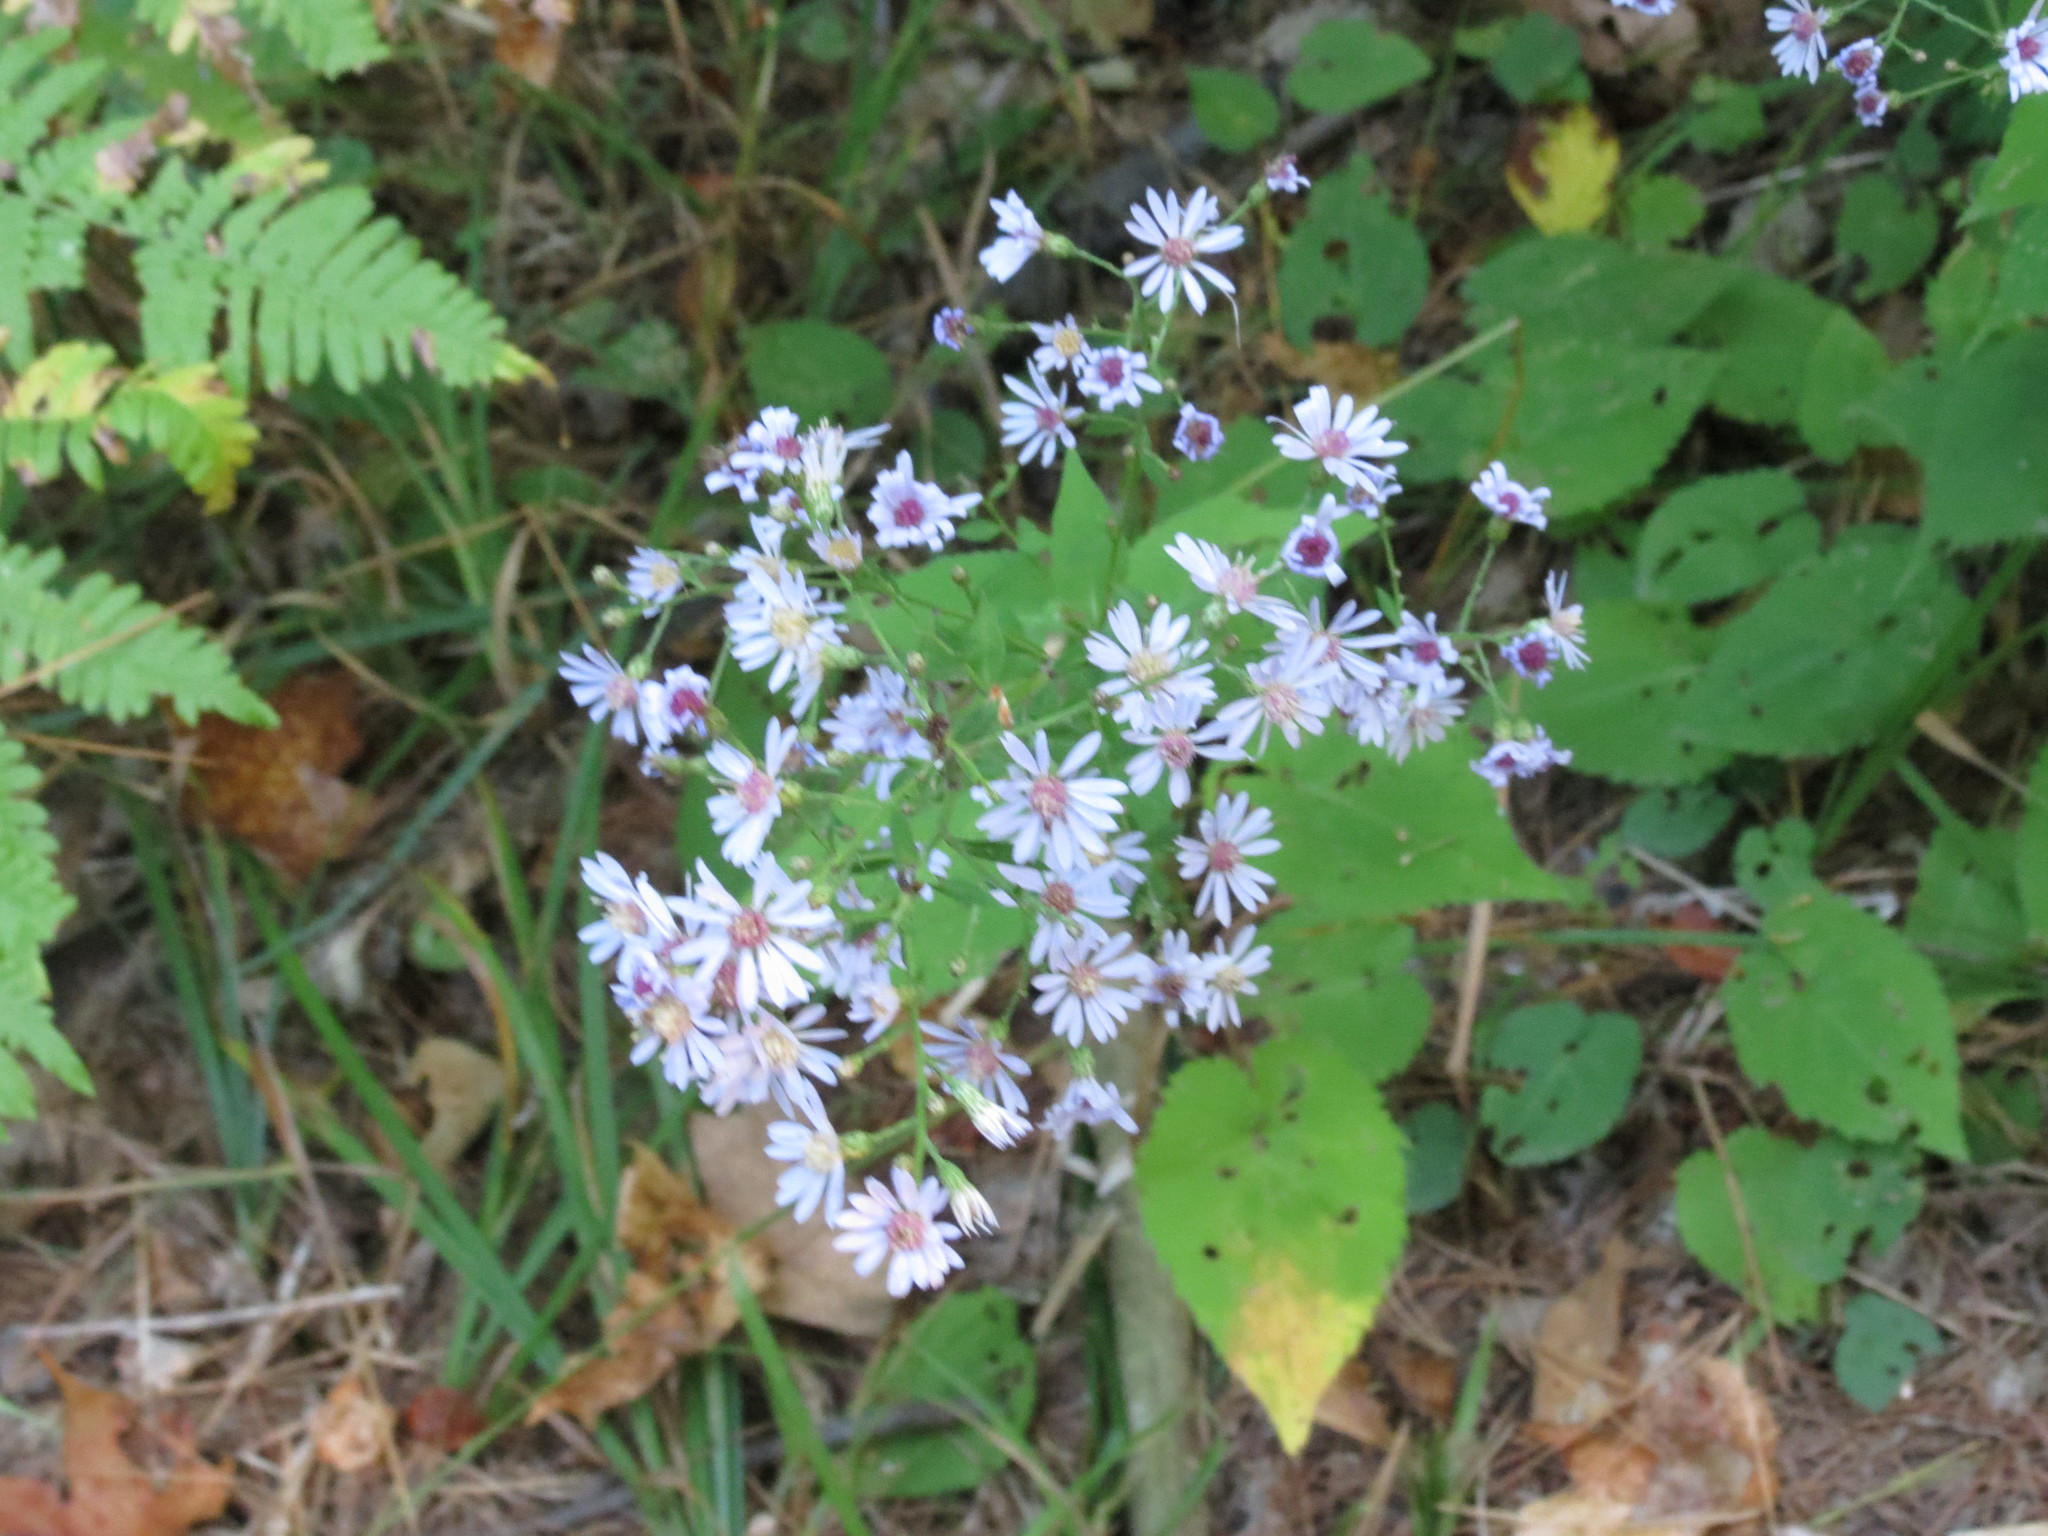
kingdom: Plantae
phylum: Tracheophyta
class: Magnoliopsida
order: Asterales
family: Asteraceae
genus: Symphyotrichum
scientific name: Symphyotrichum cordifolium
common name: Beeweed
